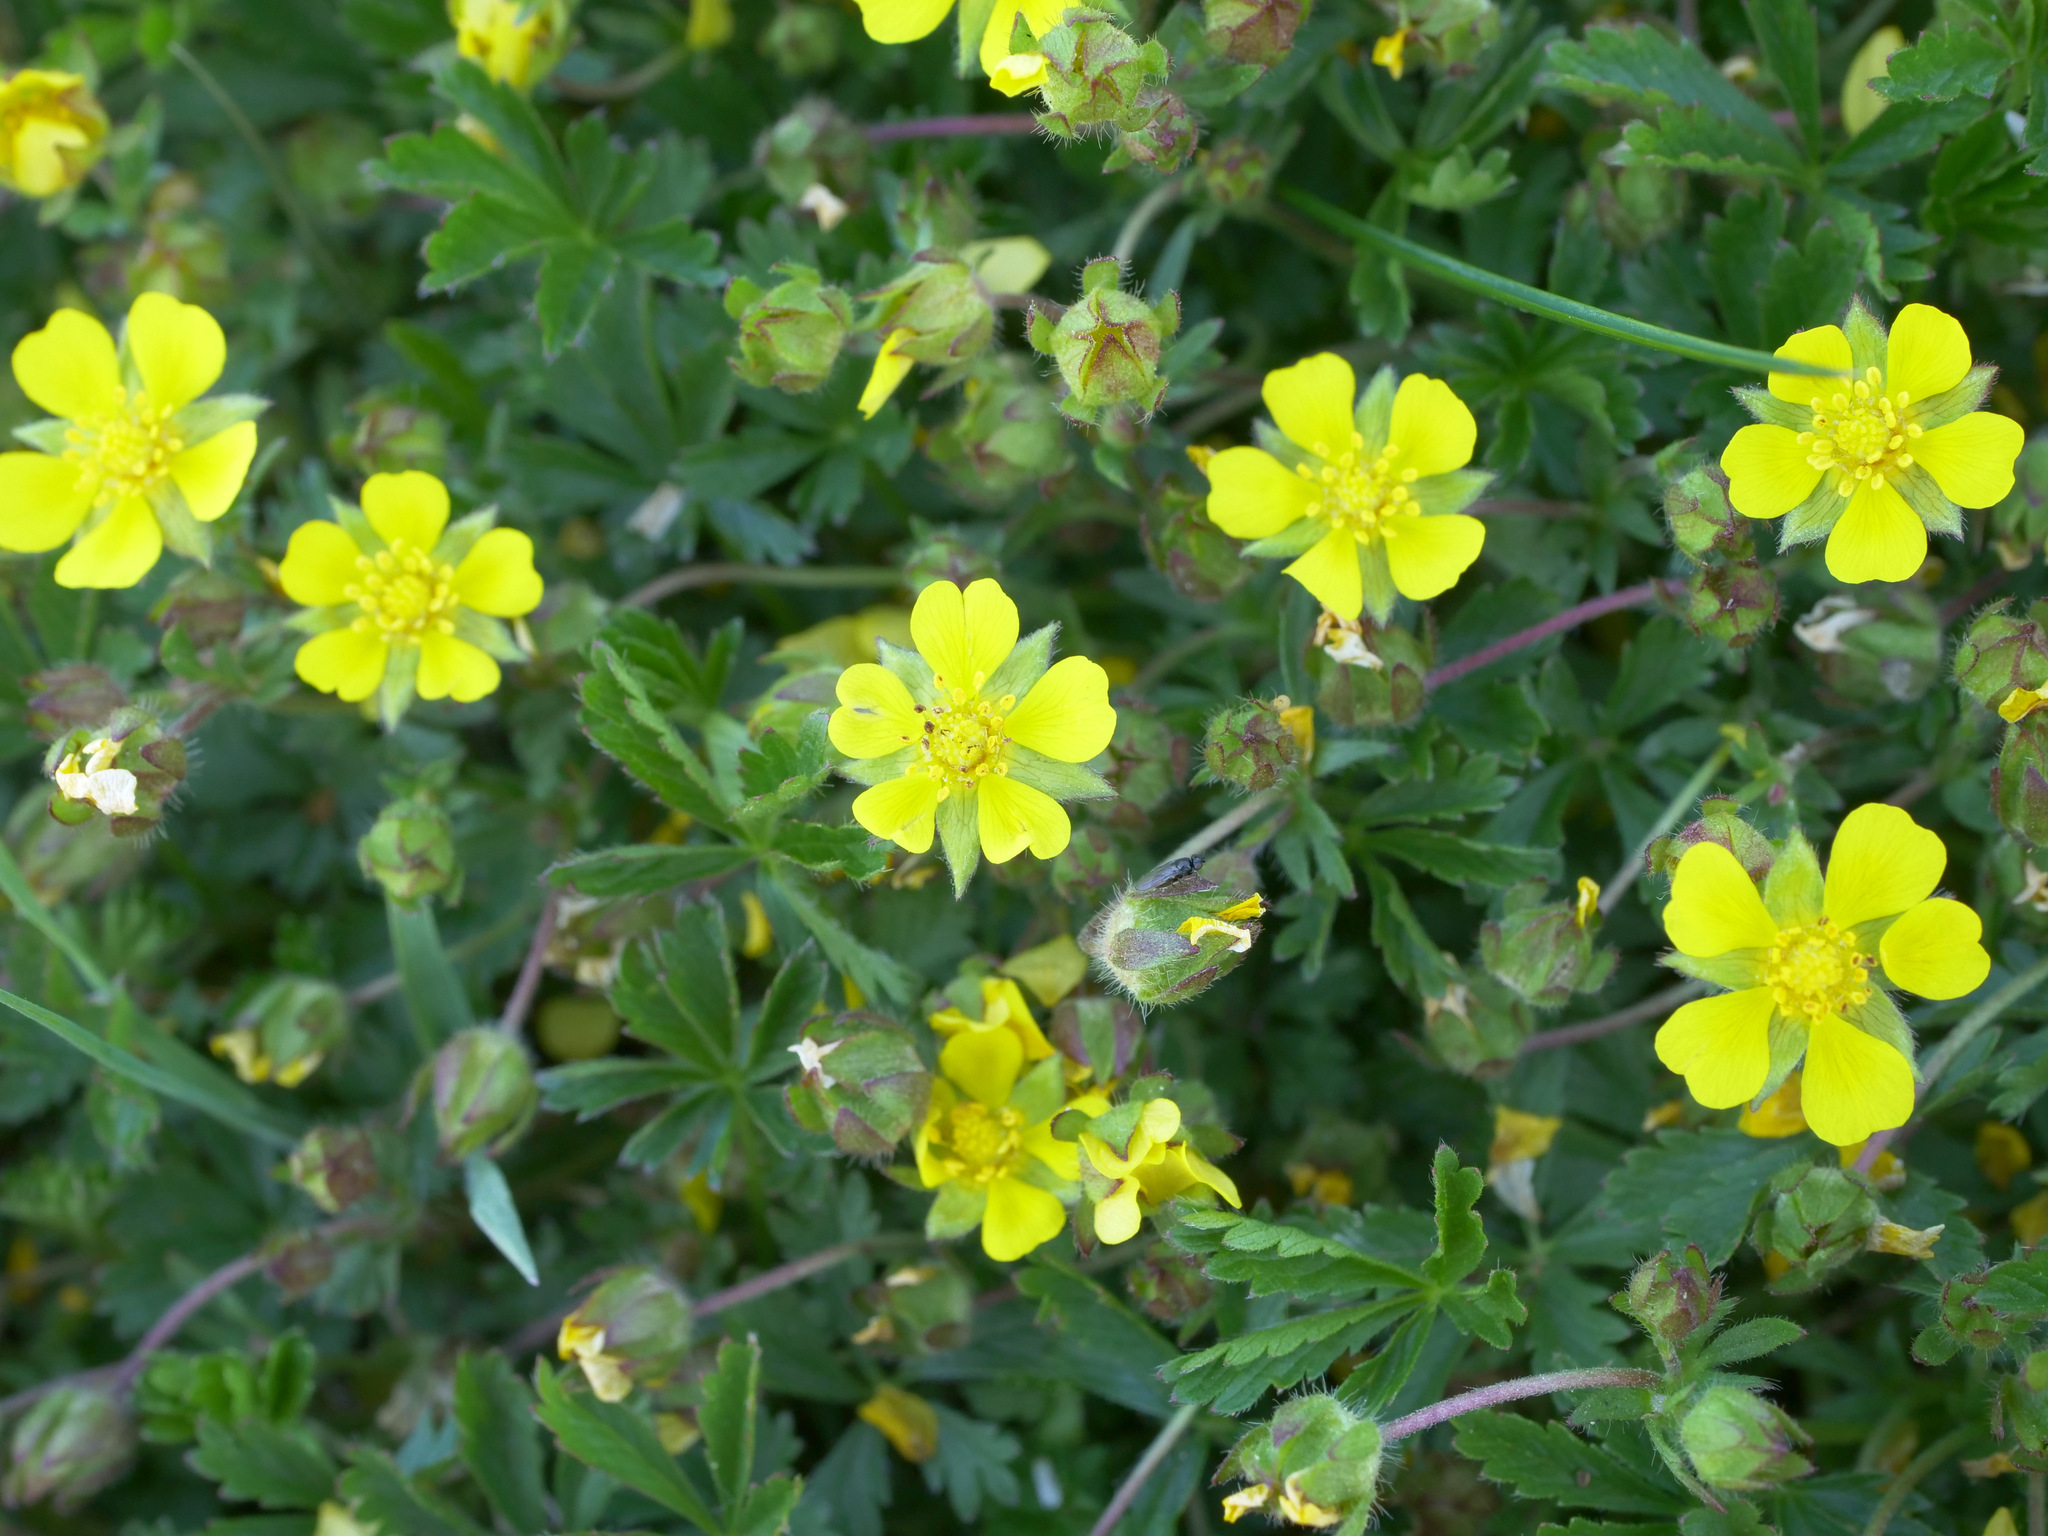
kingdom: Plantae
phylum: Tracheophyta
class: Magnoliopsida
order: Rosales
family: Rosaceae
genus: Potentilla
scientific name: Potentilla verna
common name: Spring cinquefoil
